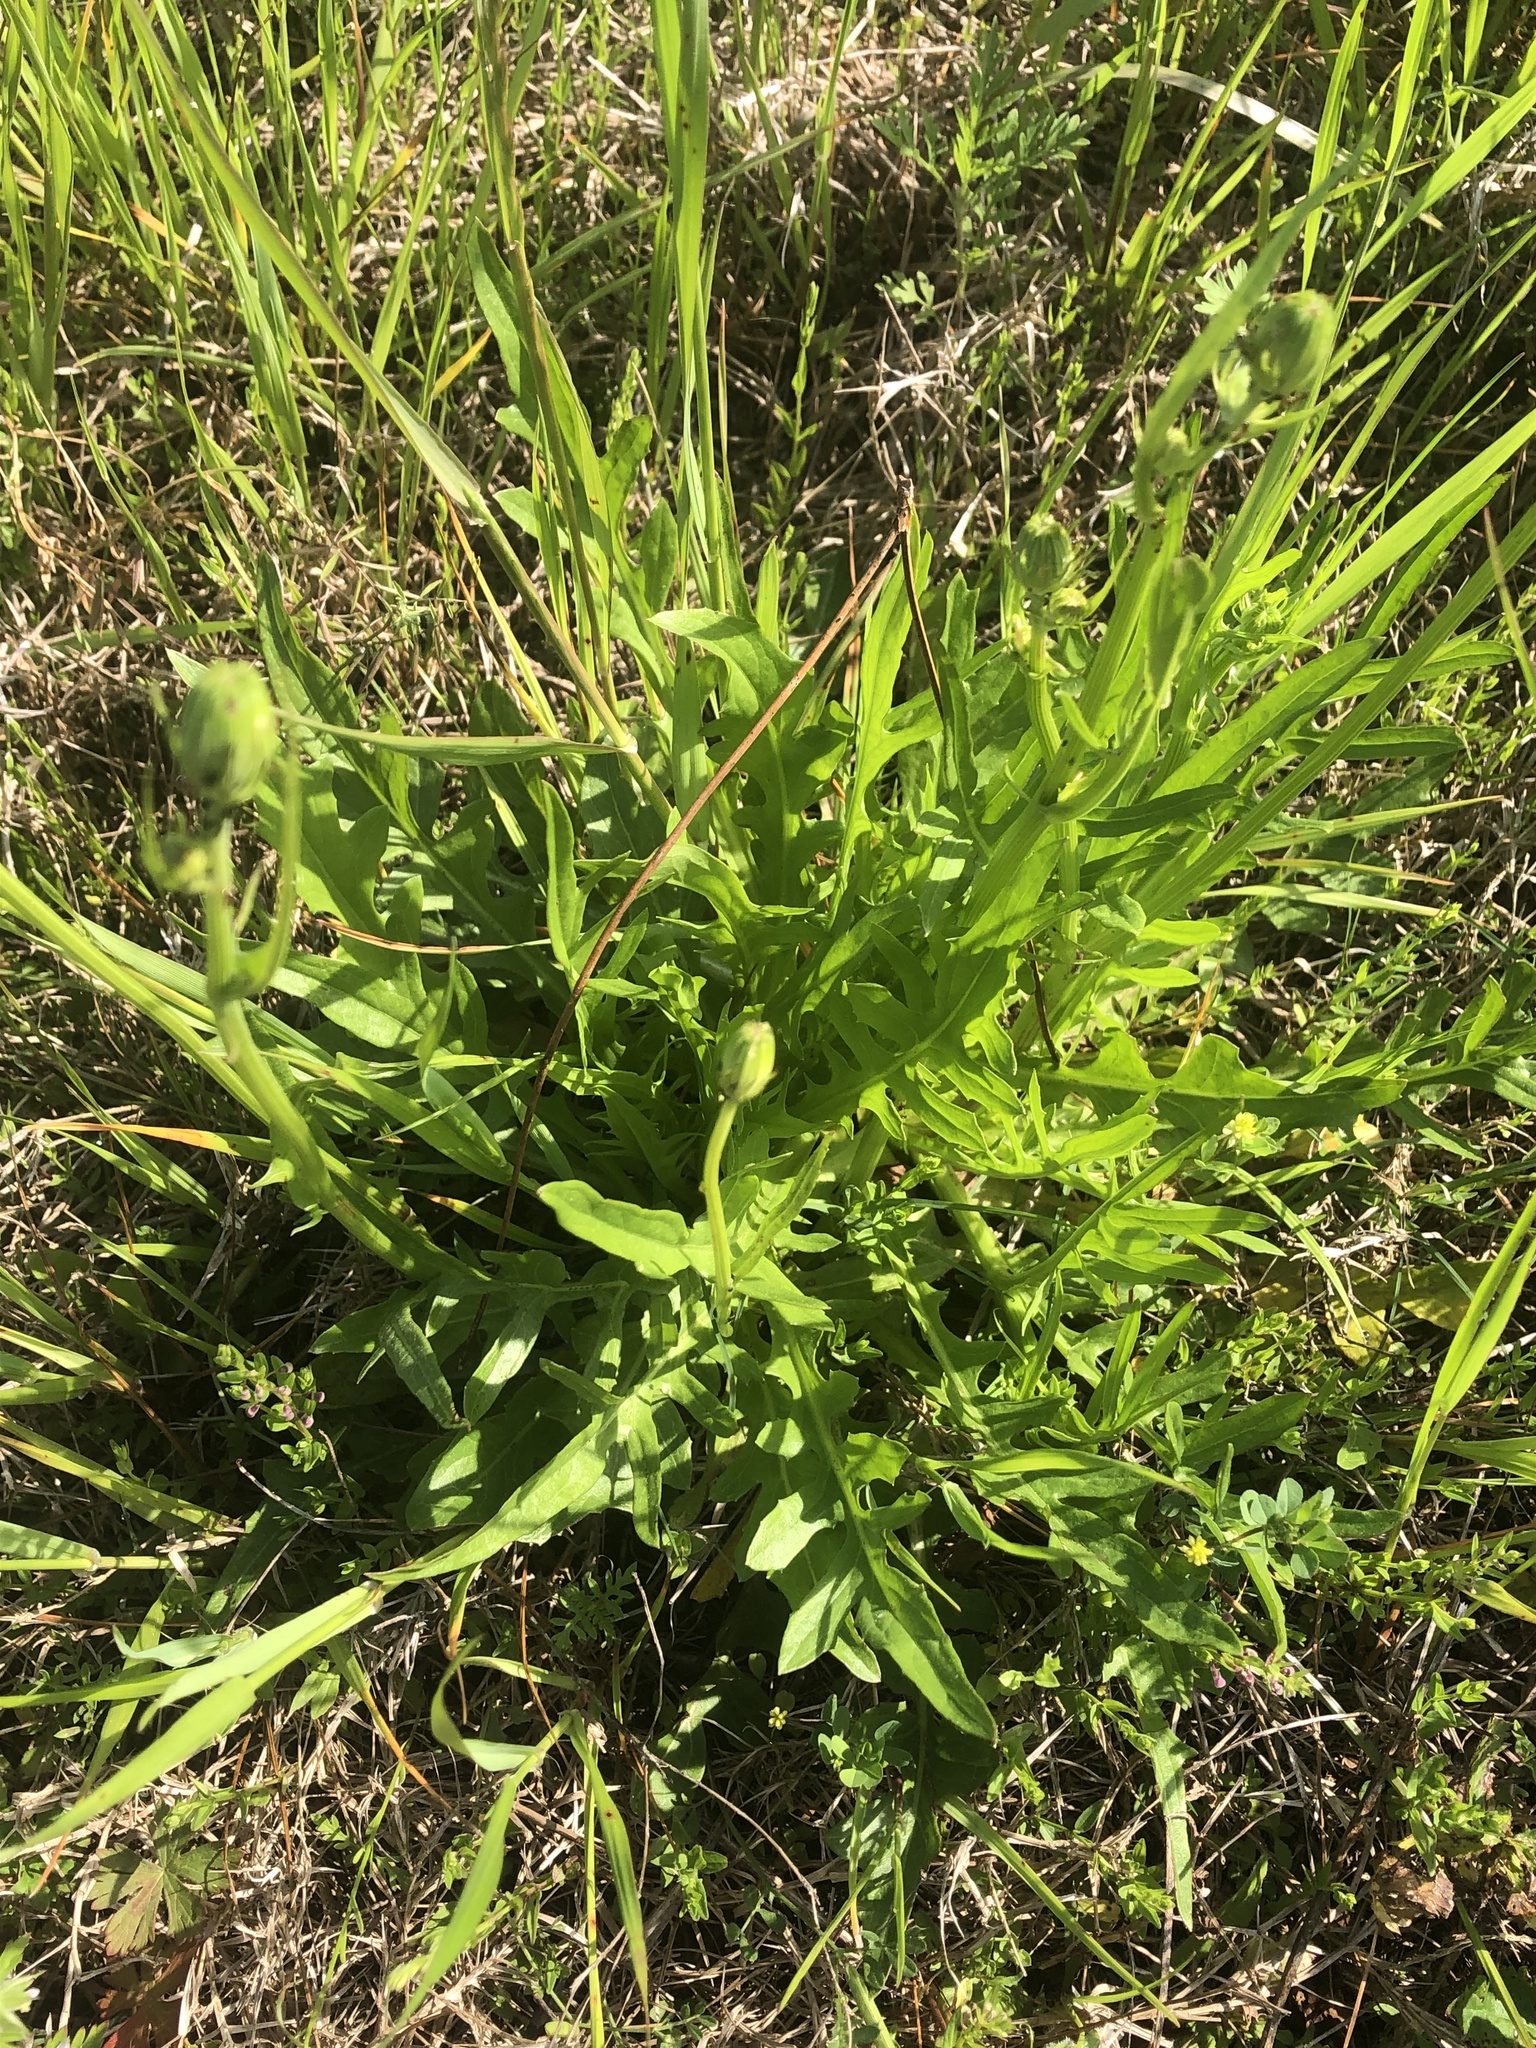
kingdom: Plantae
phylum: Tracheophyta
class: Magnoliopsida
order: Asterales
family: Asteraceae
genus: Pyrrhopappus
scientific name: Pyrrhopappus carolinianus
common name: Carolina desert-chicory
